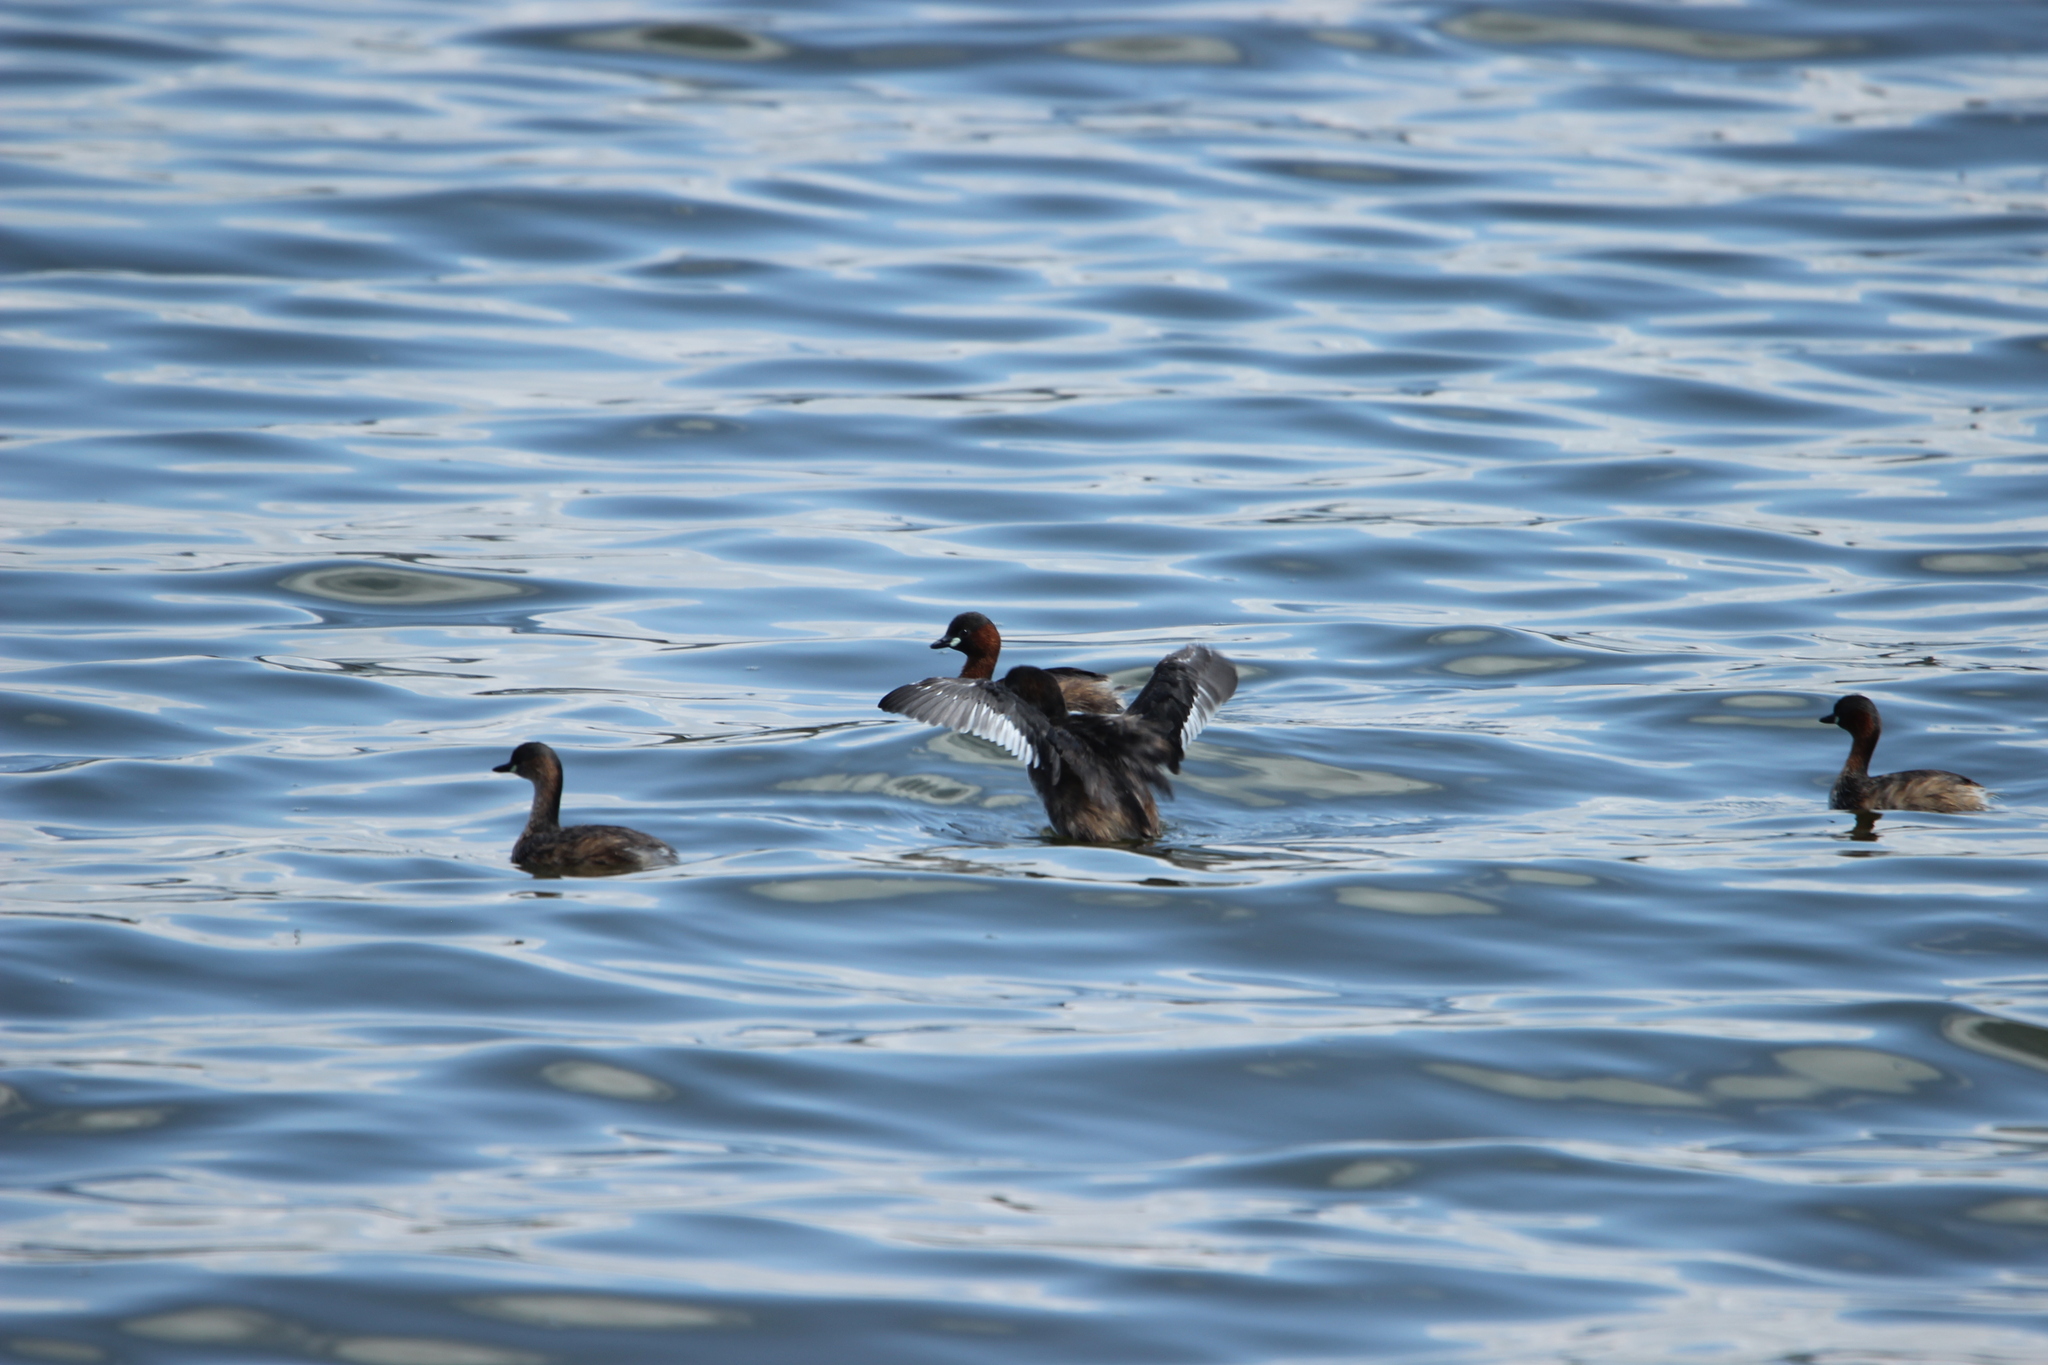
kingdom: Animalia
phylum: Chordata
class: Aves
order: Podicipediformes
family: Podicipedidae
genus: Tachybaptus
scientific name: Tachybaptus ruficollis
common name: Little grebe
